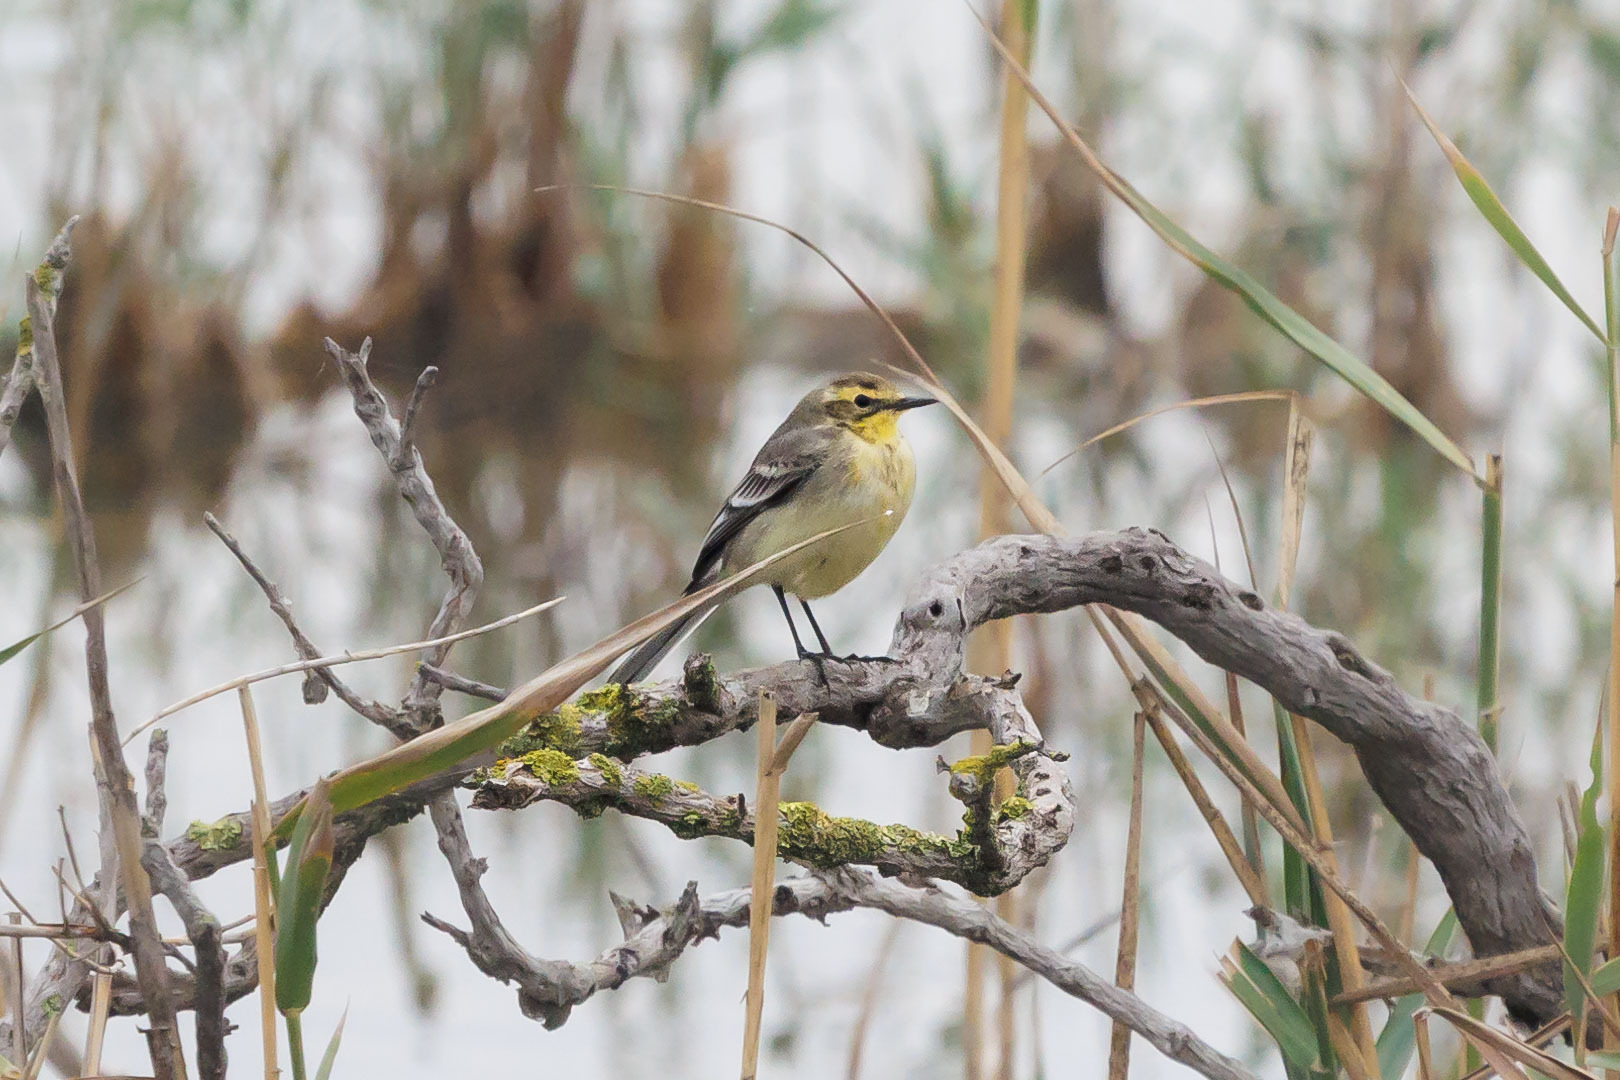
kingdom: Animalia
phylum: Chordata
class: Aves
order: Passeriformes
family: Motacillidae
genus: Motacilla
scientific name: Motacilla citreola
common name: Citrine wagtail
